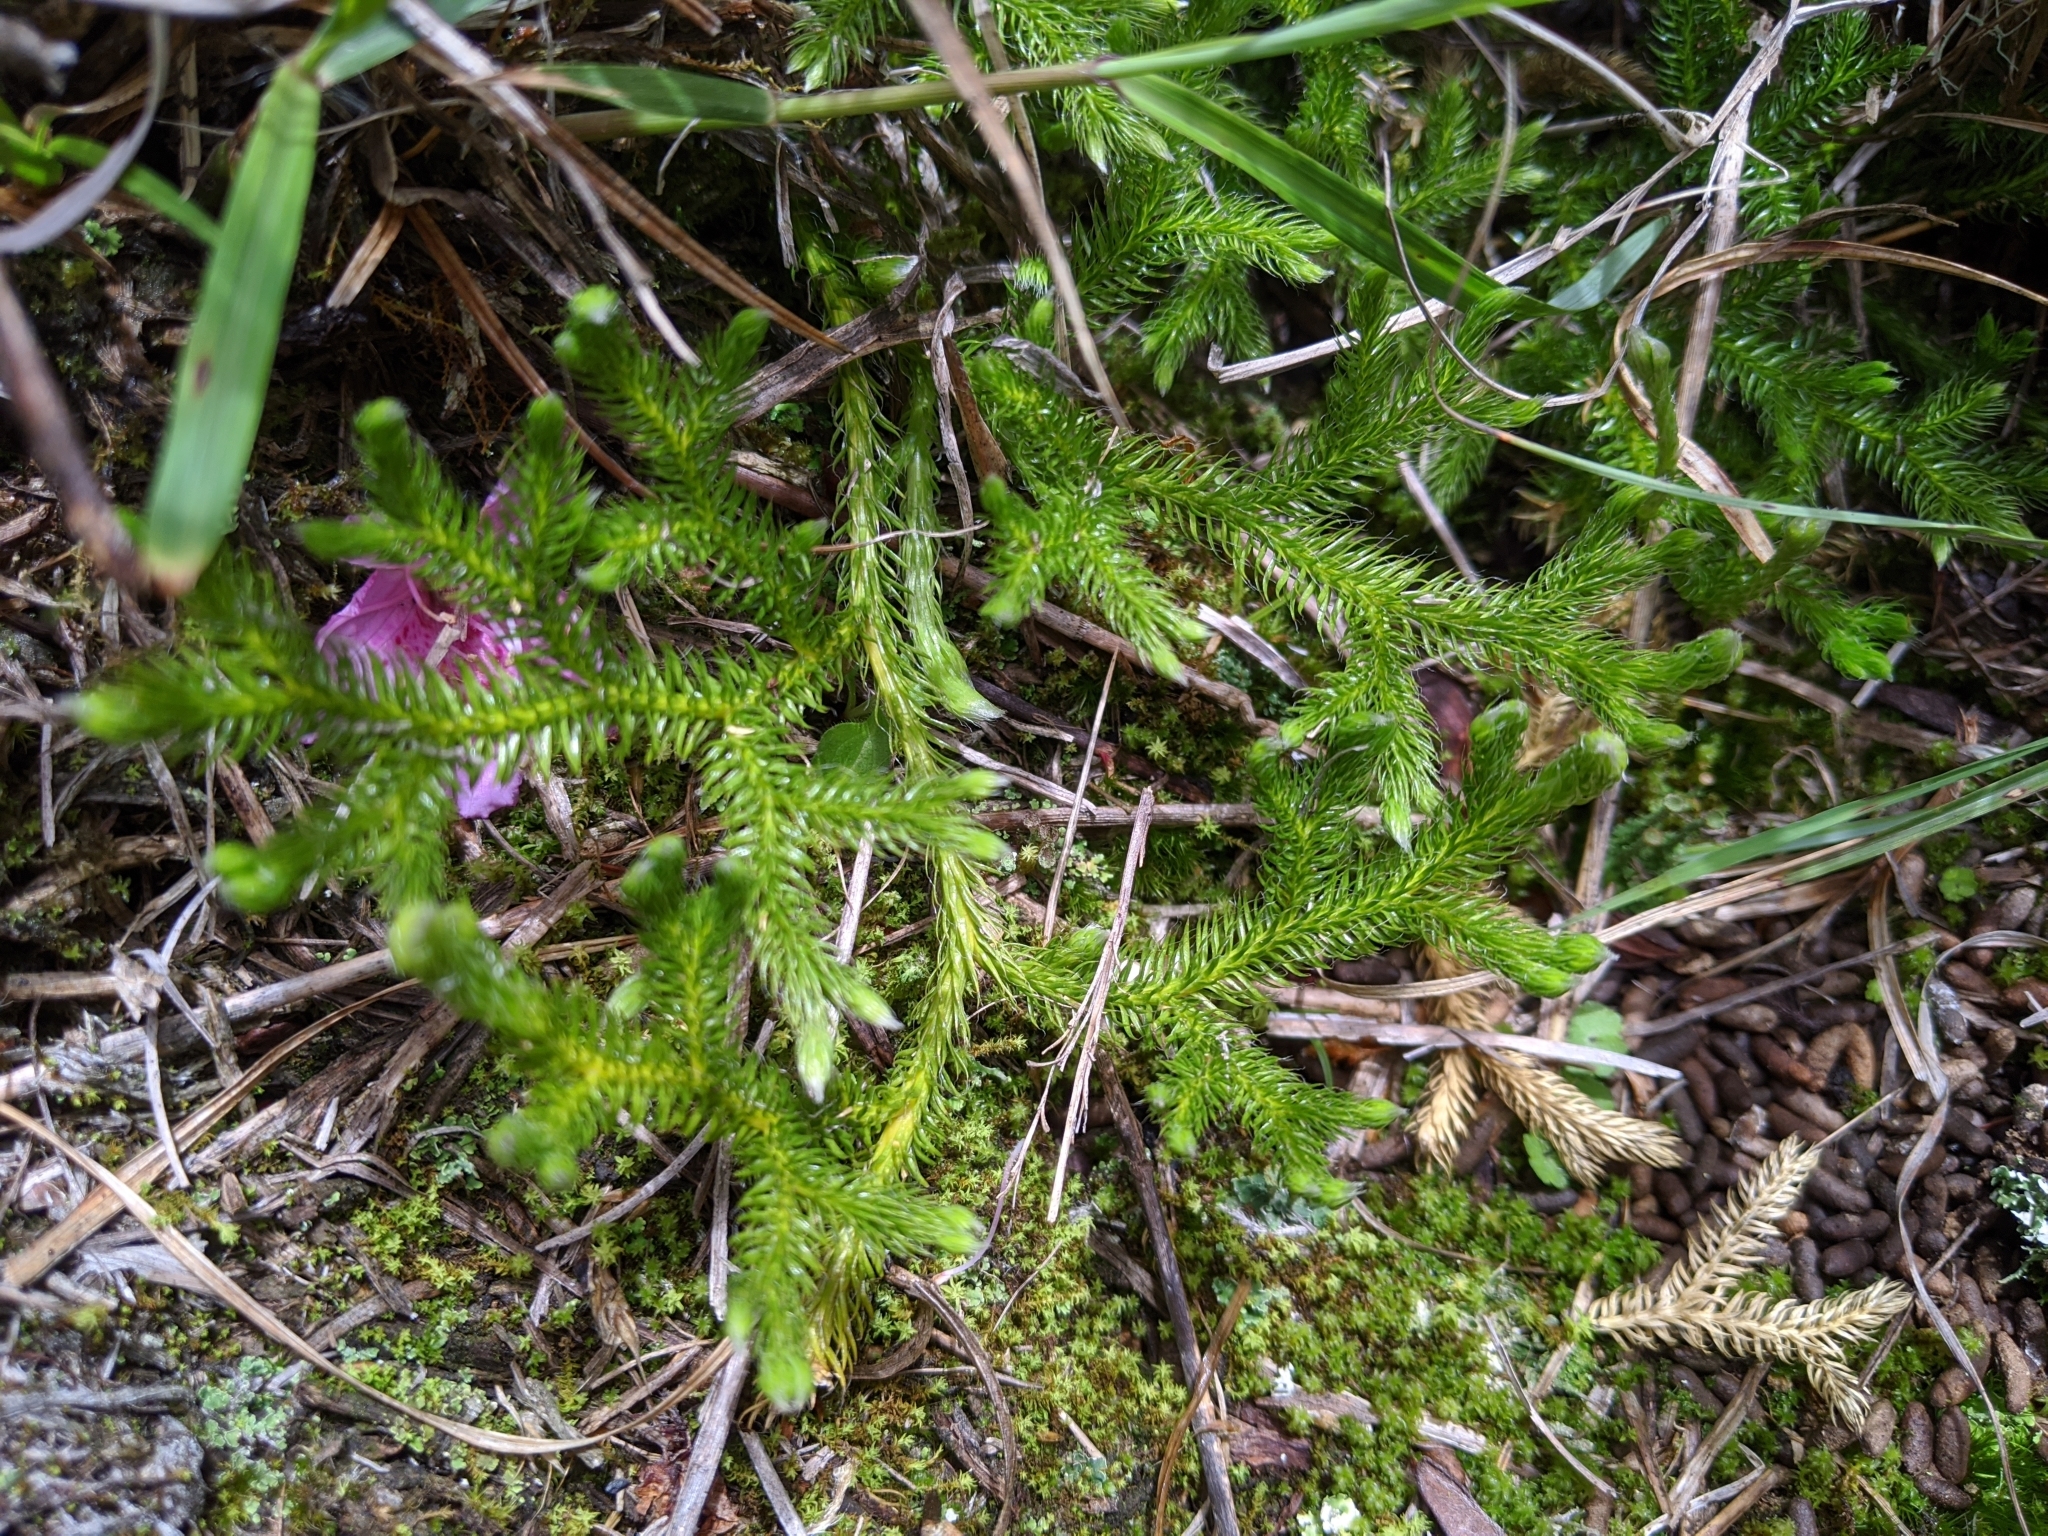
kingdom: Plantae
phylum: Tracheophyta
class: Lycopodiopsida
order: Lycopodiales
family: Lycopodiaceae
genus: Lycopodium
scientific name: Lycopodium clavatum
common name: Stag's-horn clubmoss
